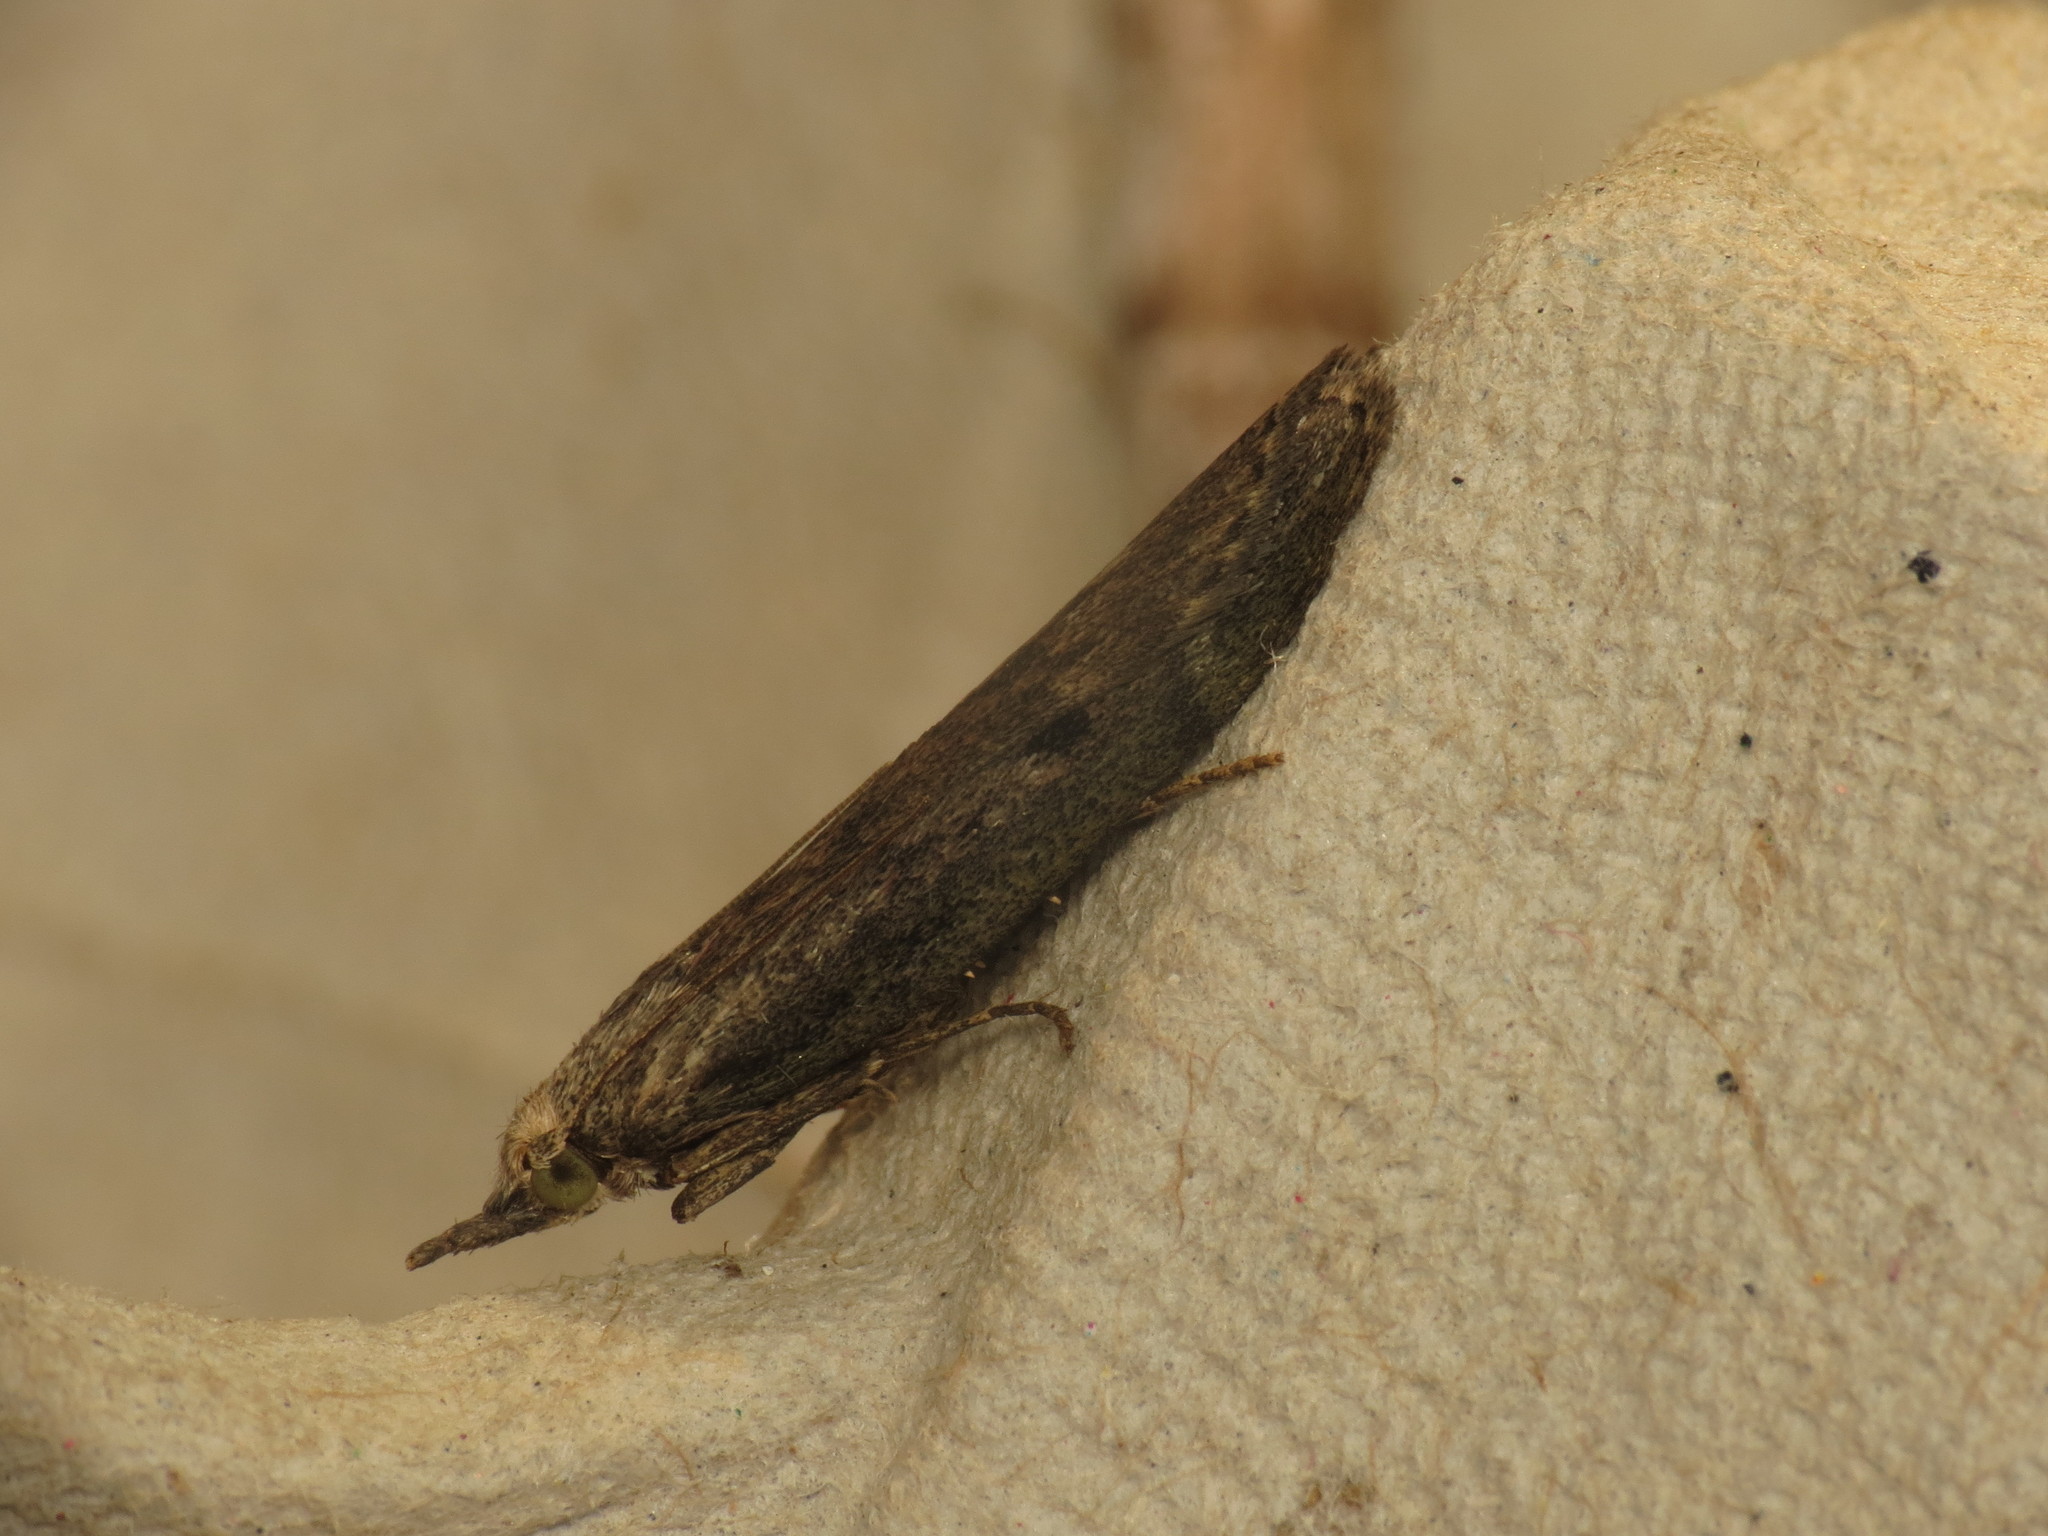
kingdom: Animalia
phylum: Arthropoda
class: Insecta
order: Lepidoptera
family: Pyralidae
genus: Aphomia
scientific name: Aphomia sociella
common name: Bee moth
